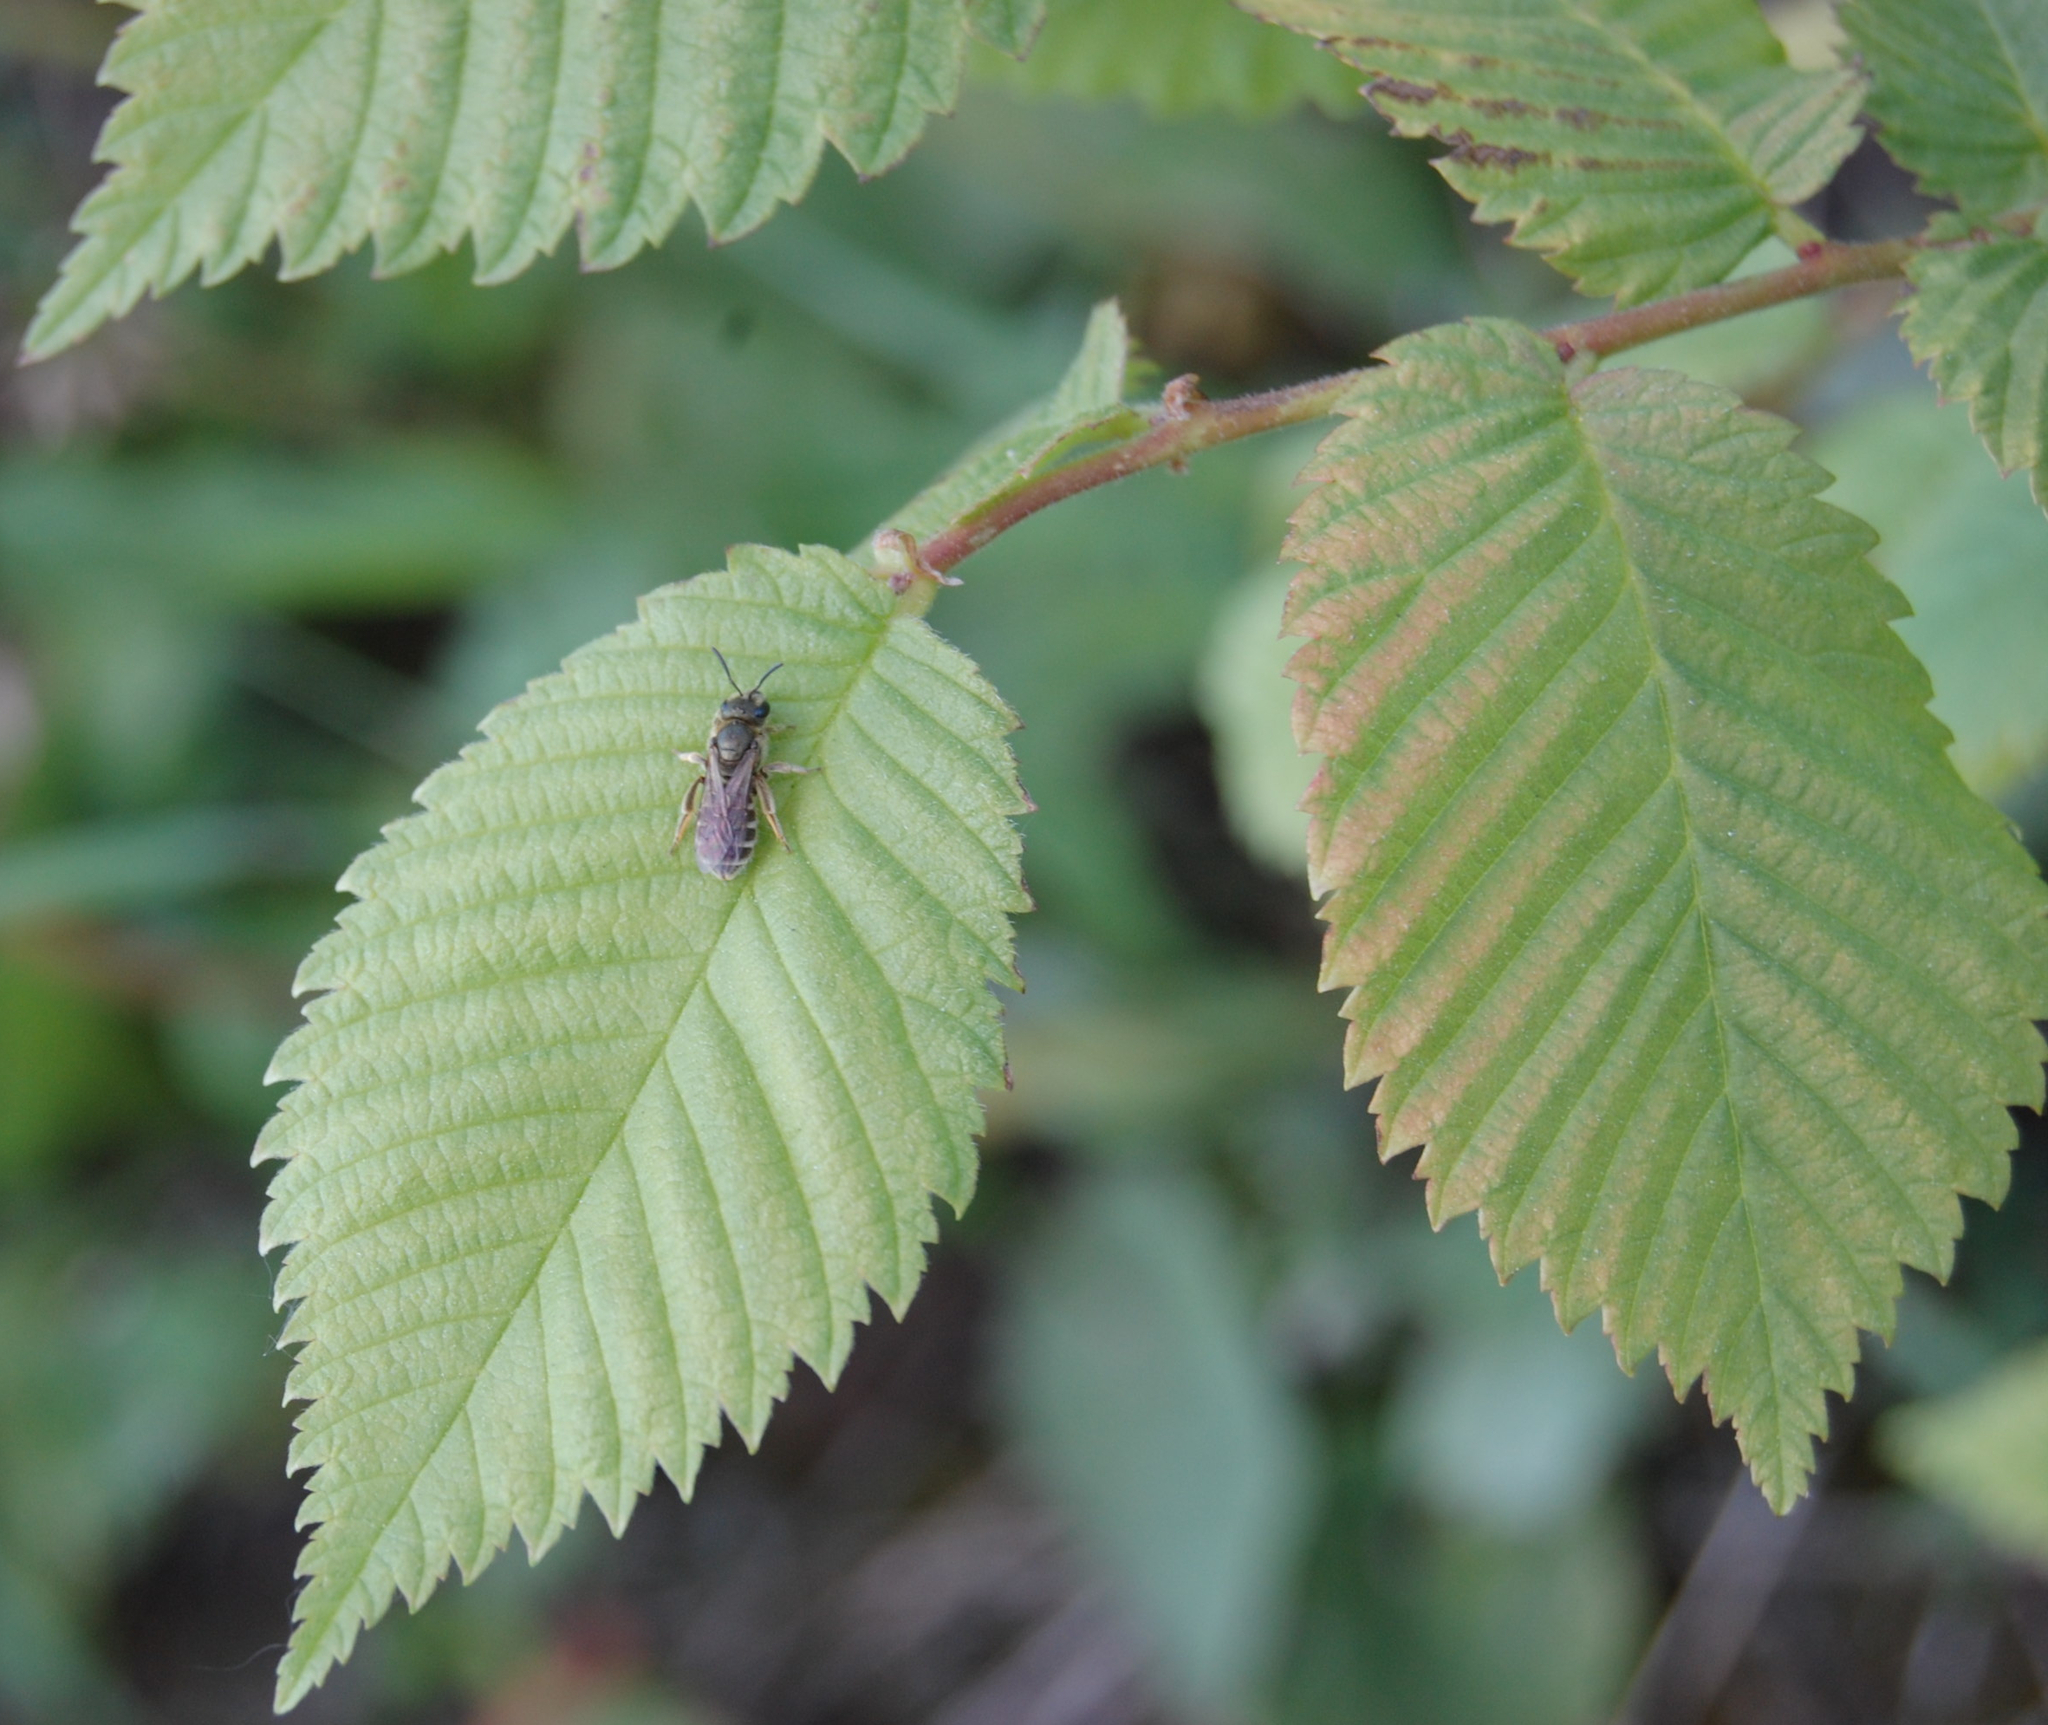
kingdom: Plantae
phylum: Tracheophyta
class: Magnoliopsida
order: Rosales
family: Ulmaceae
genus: Ulmus
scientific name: Ulmus pumila
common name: Siberian elm
